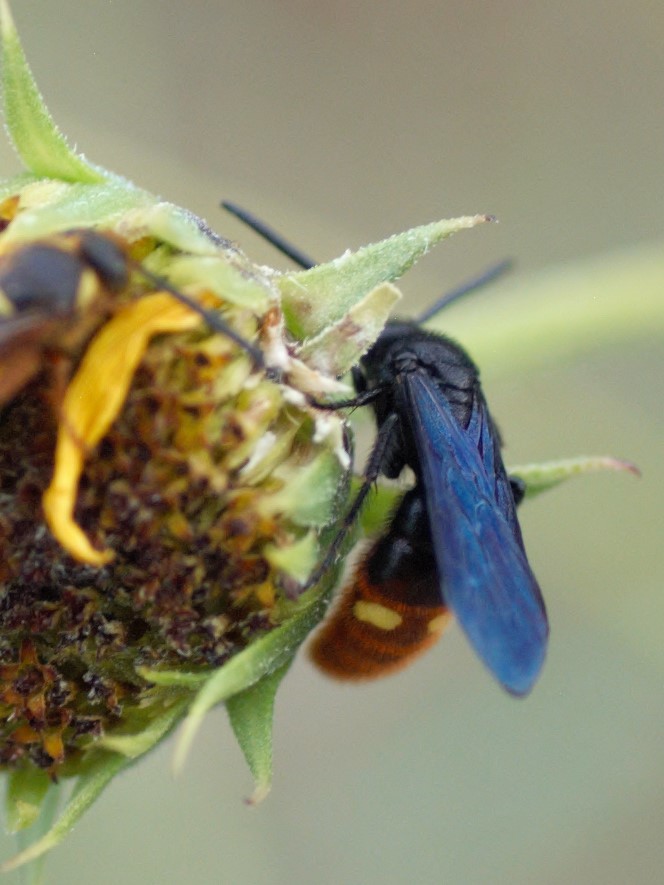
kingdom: Animalia
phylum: Arthropoda
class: Insecta
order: Hymenoptera
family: Scoliidae
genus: Scolia
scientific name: Scolia dubia
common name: Blue-winged scoliid wasp
